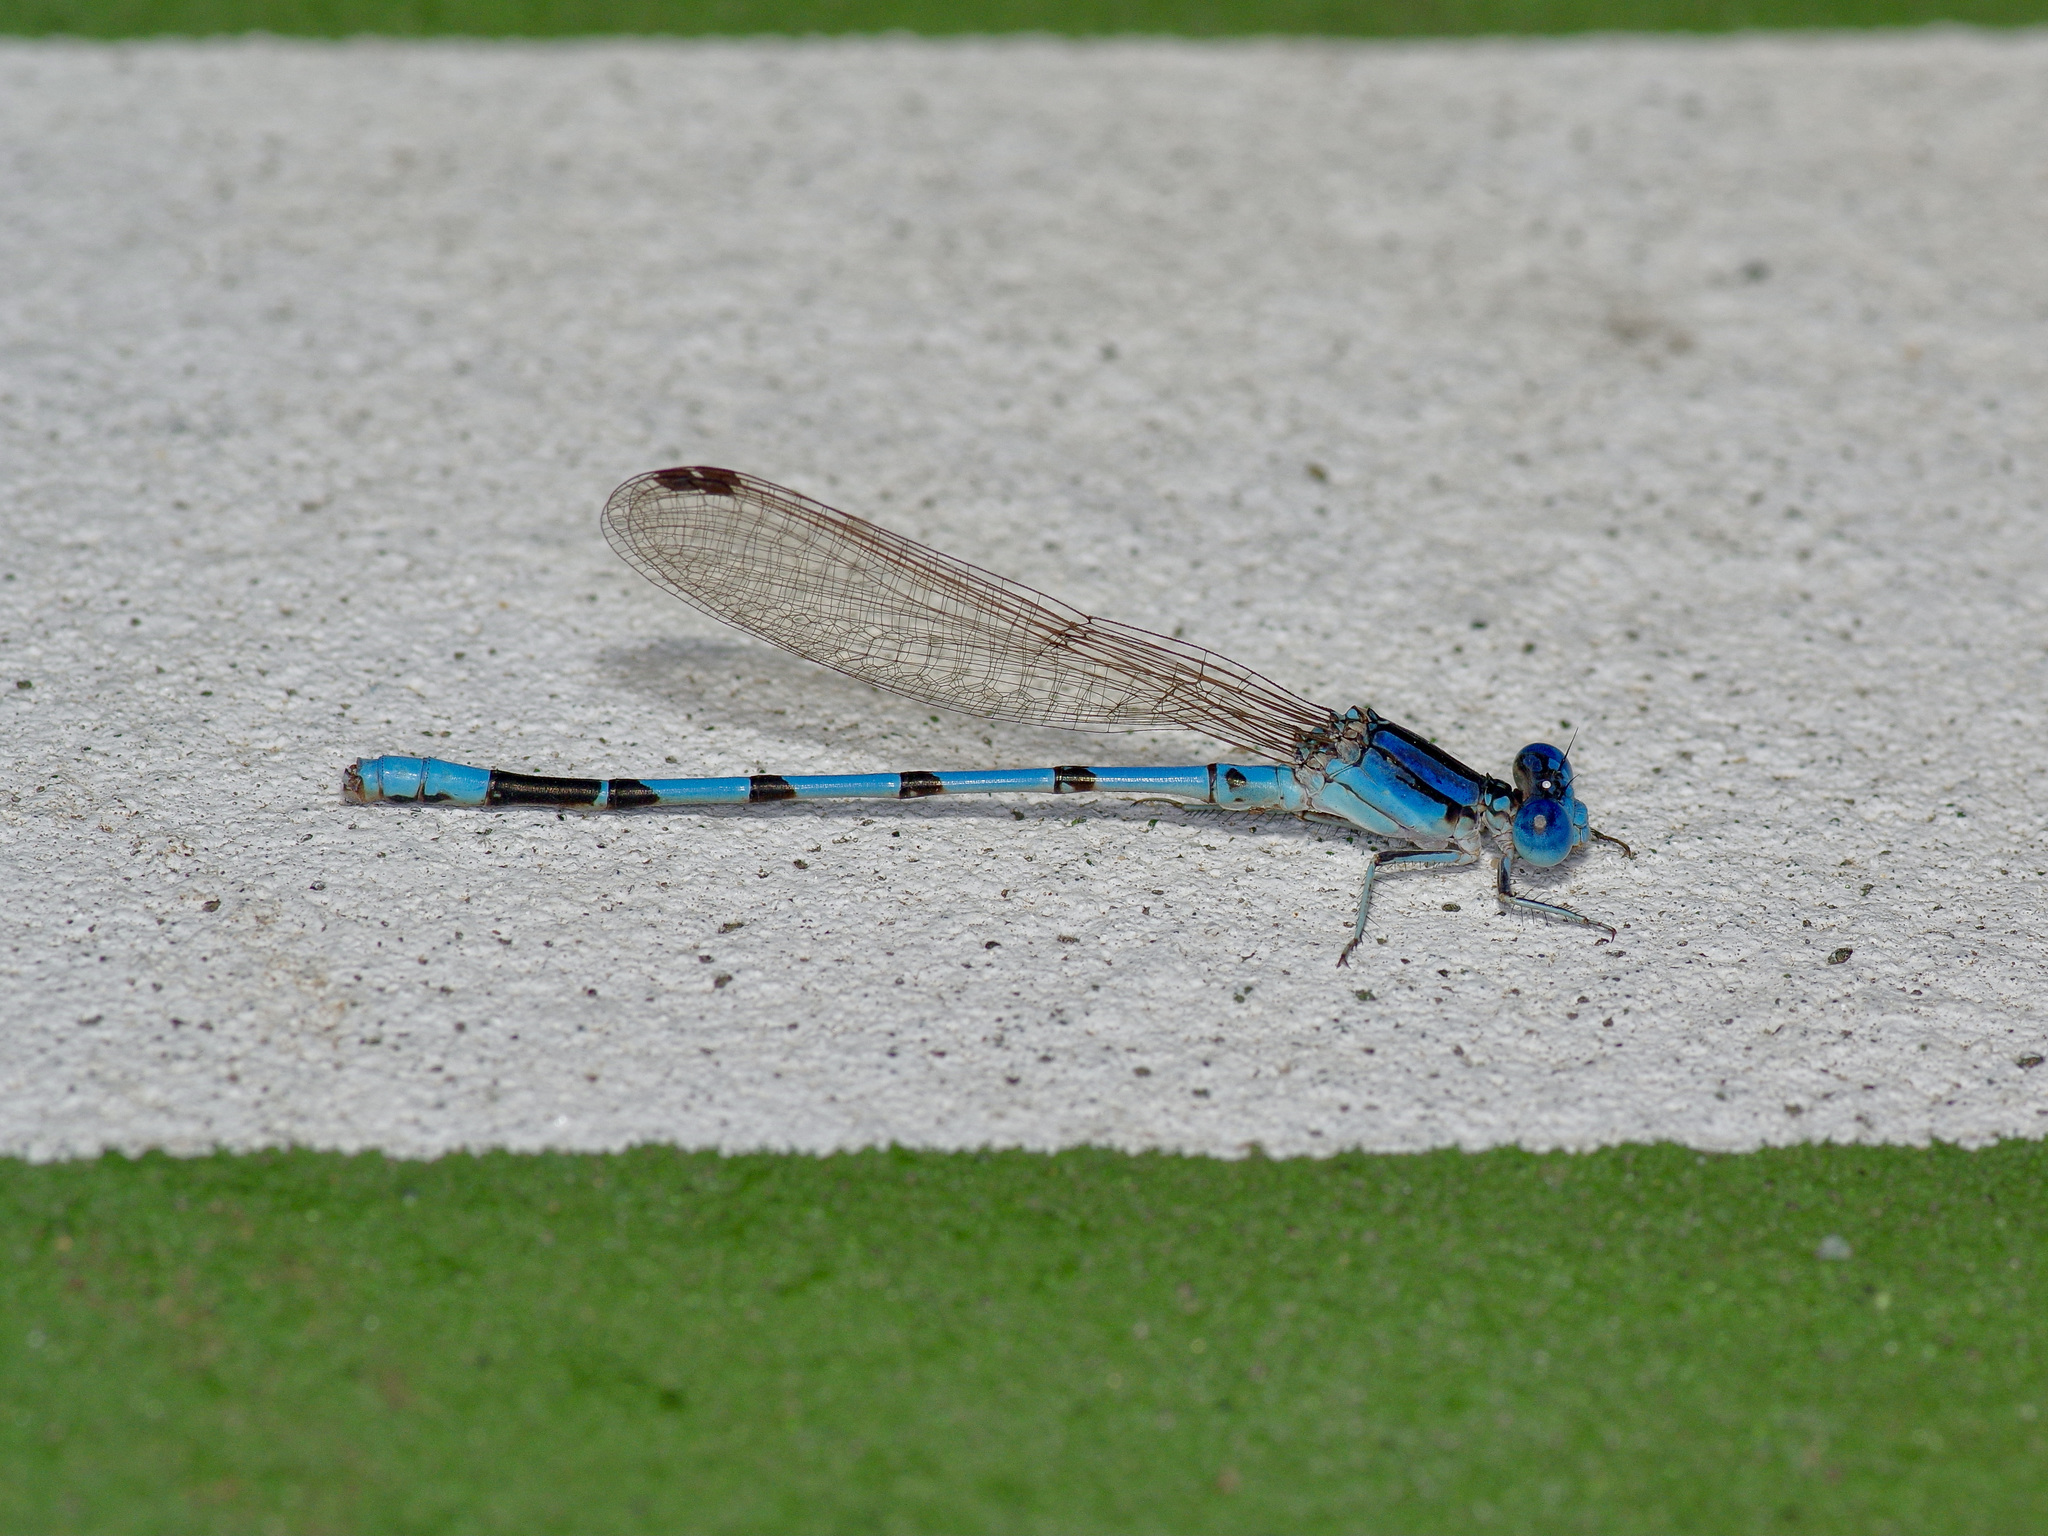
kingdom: Animalia
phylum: Arthropoda
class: Insecta
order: Odonata
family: Coenagrionidae
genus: Argia
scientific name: Argia nahuana
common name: Aztec dancer
